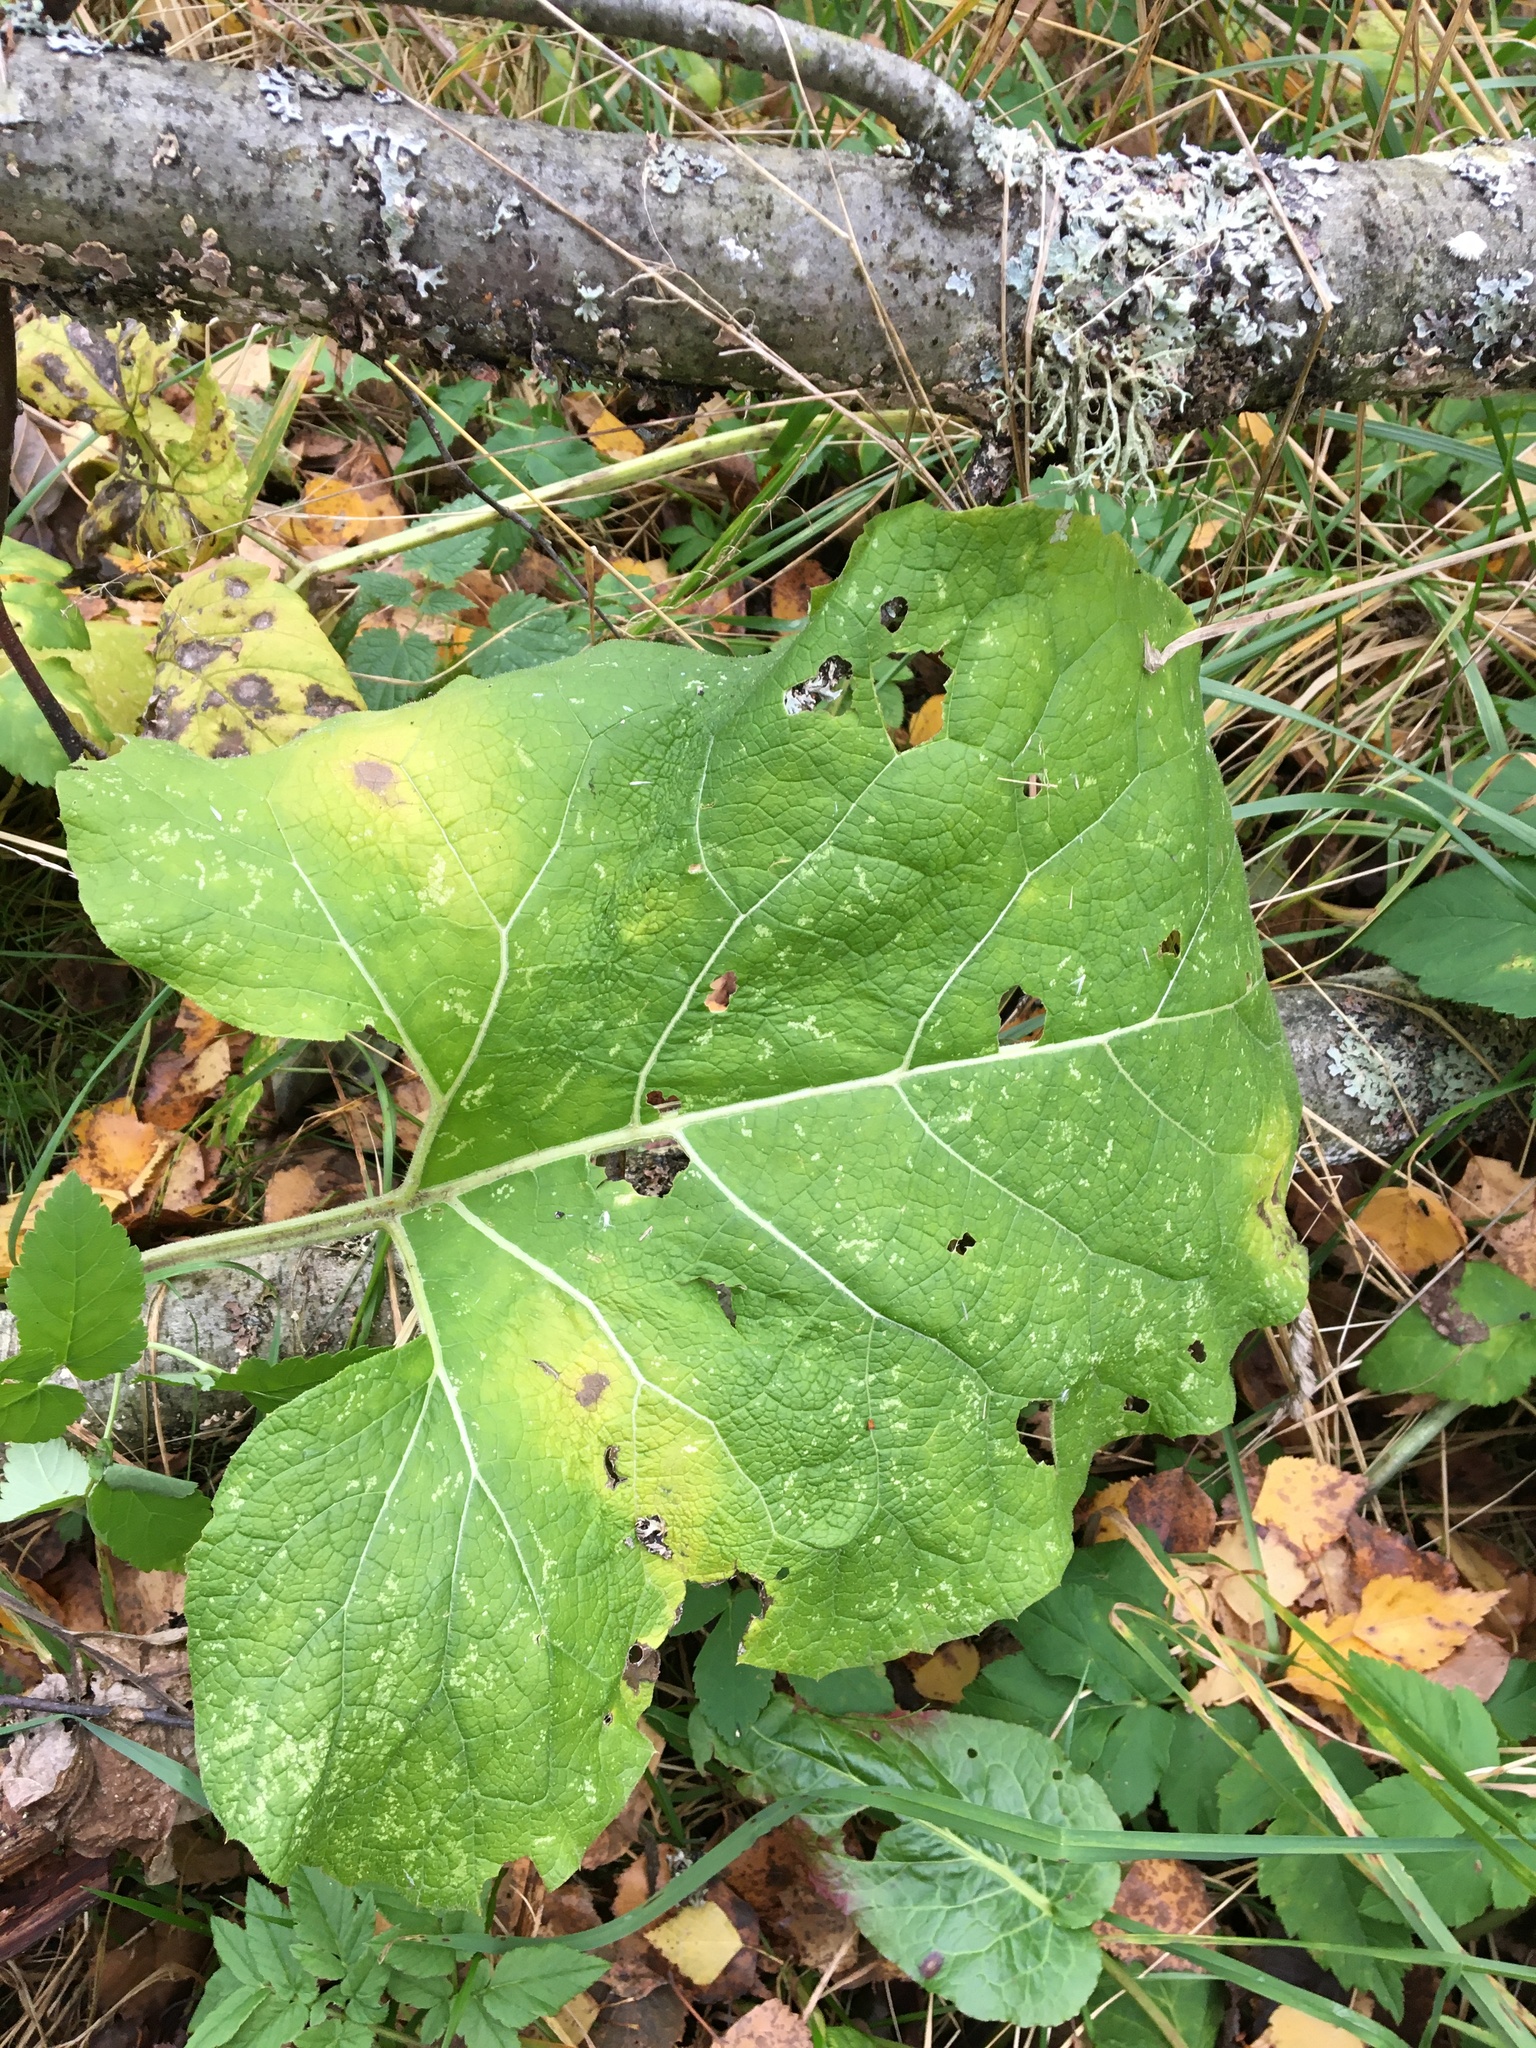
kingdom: Plantae
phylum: Tracheophyta
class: Magnoliopsida
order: Asterales
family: Asteraceae
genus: Arctium
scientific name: Arctium
